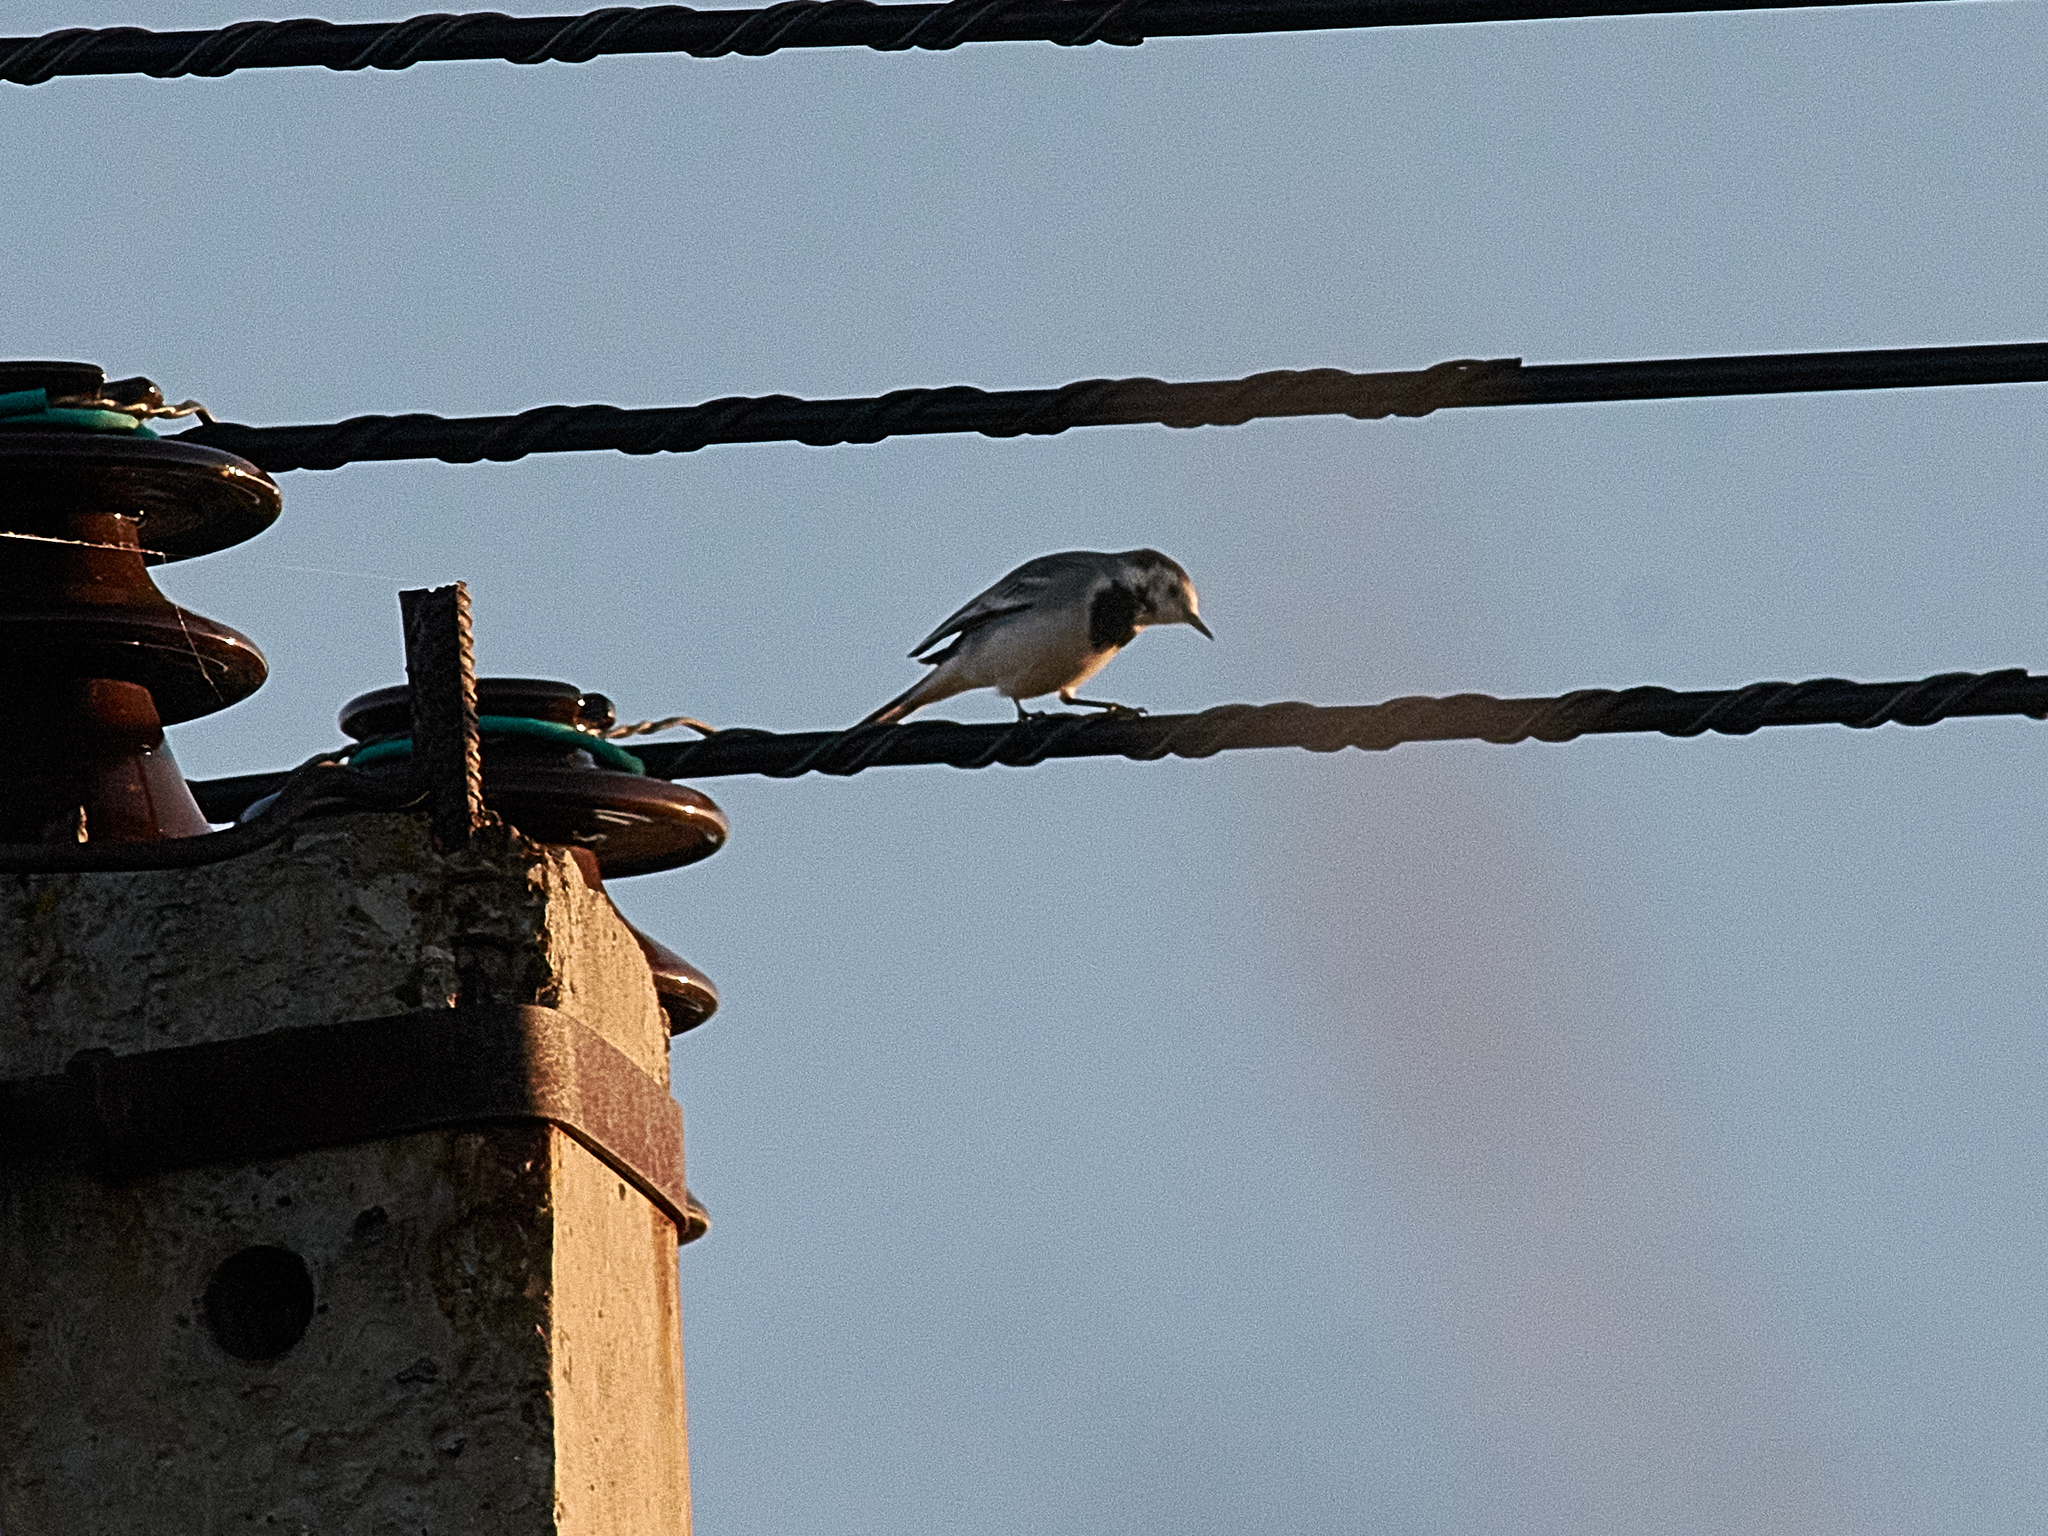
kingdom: Animalia
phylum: Chordata
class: Aves
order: Passeriformes
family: Motacillidae
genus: Motacilla
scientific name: Motacilla alba
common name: White wagtail
